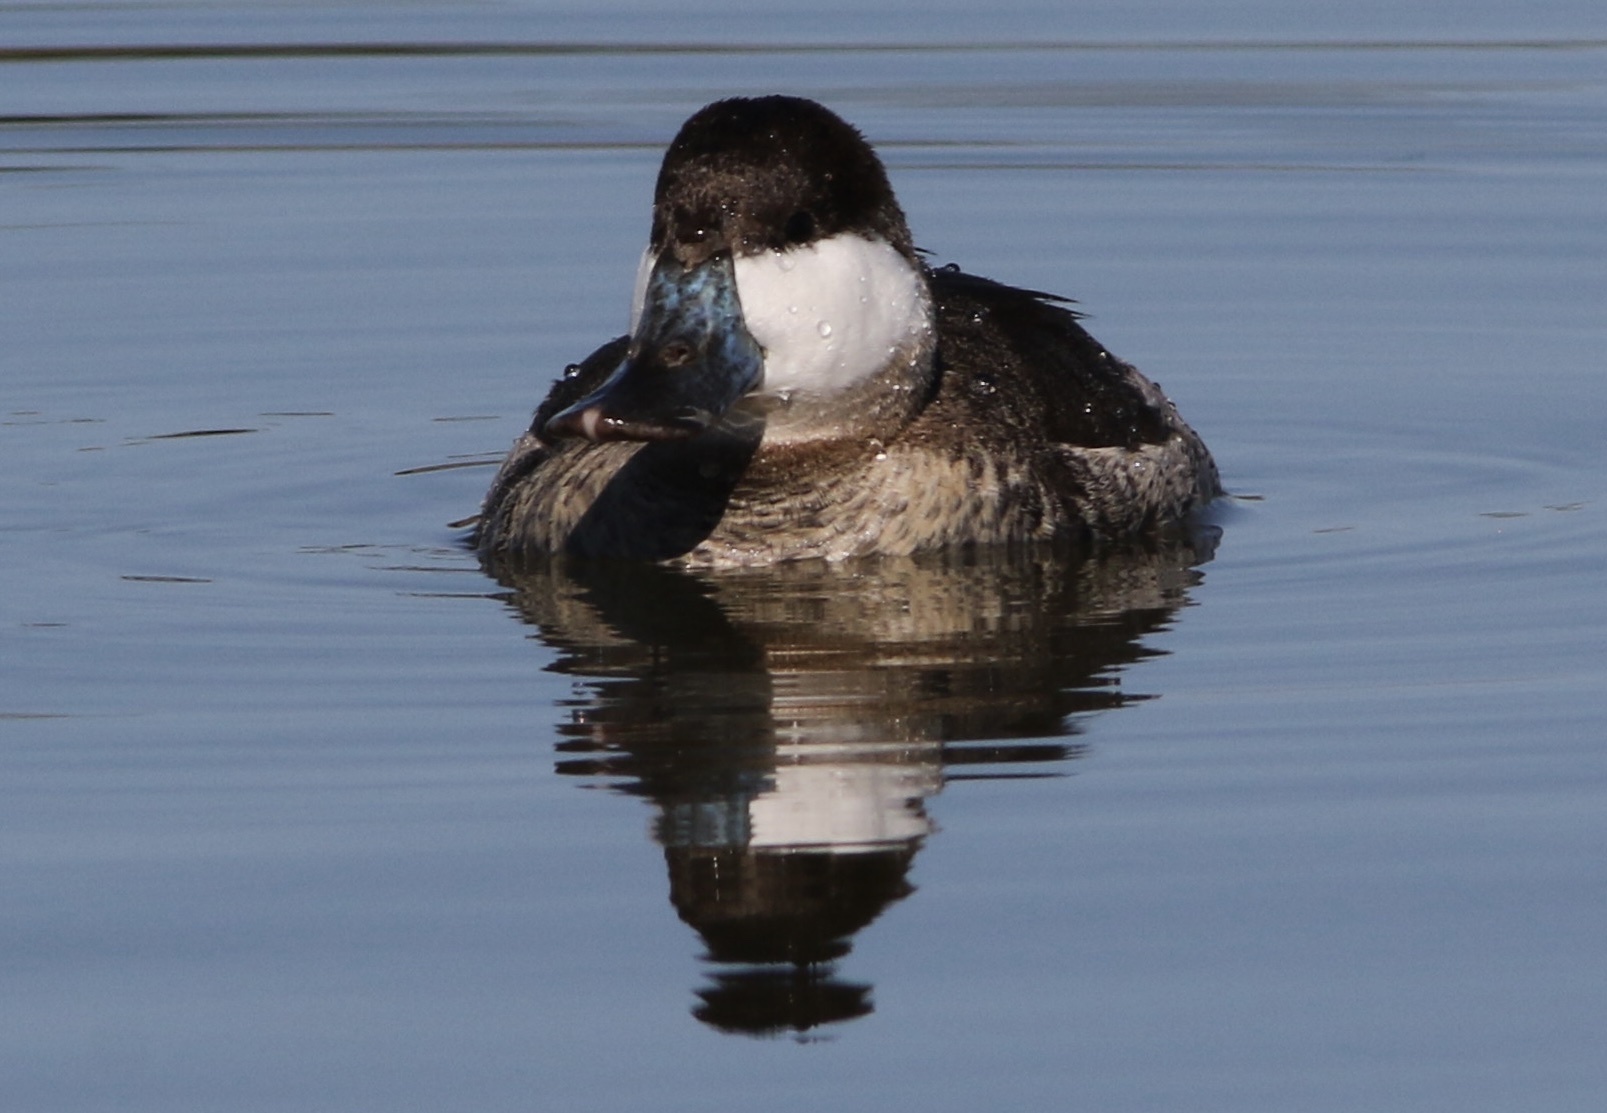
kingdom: Animalia
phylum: Chordata
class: Aves
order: Anseriformes
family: Anatidae
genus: Oxyura
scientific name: Oxyura jamaicensis
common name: Ruddy duck
